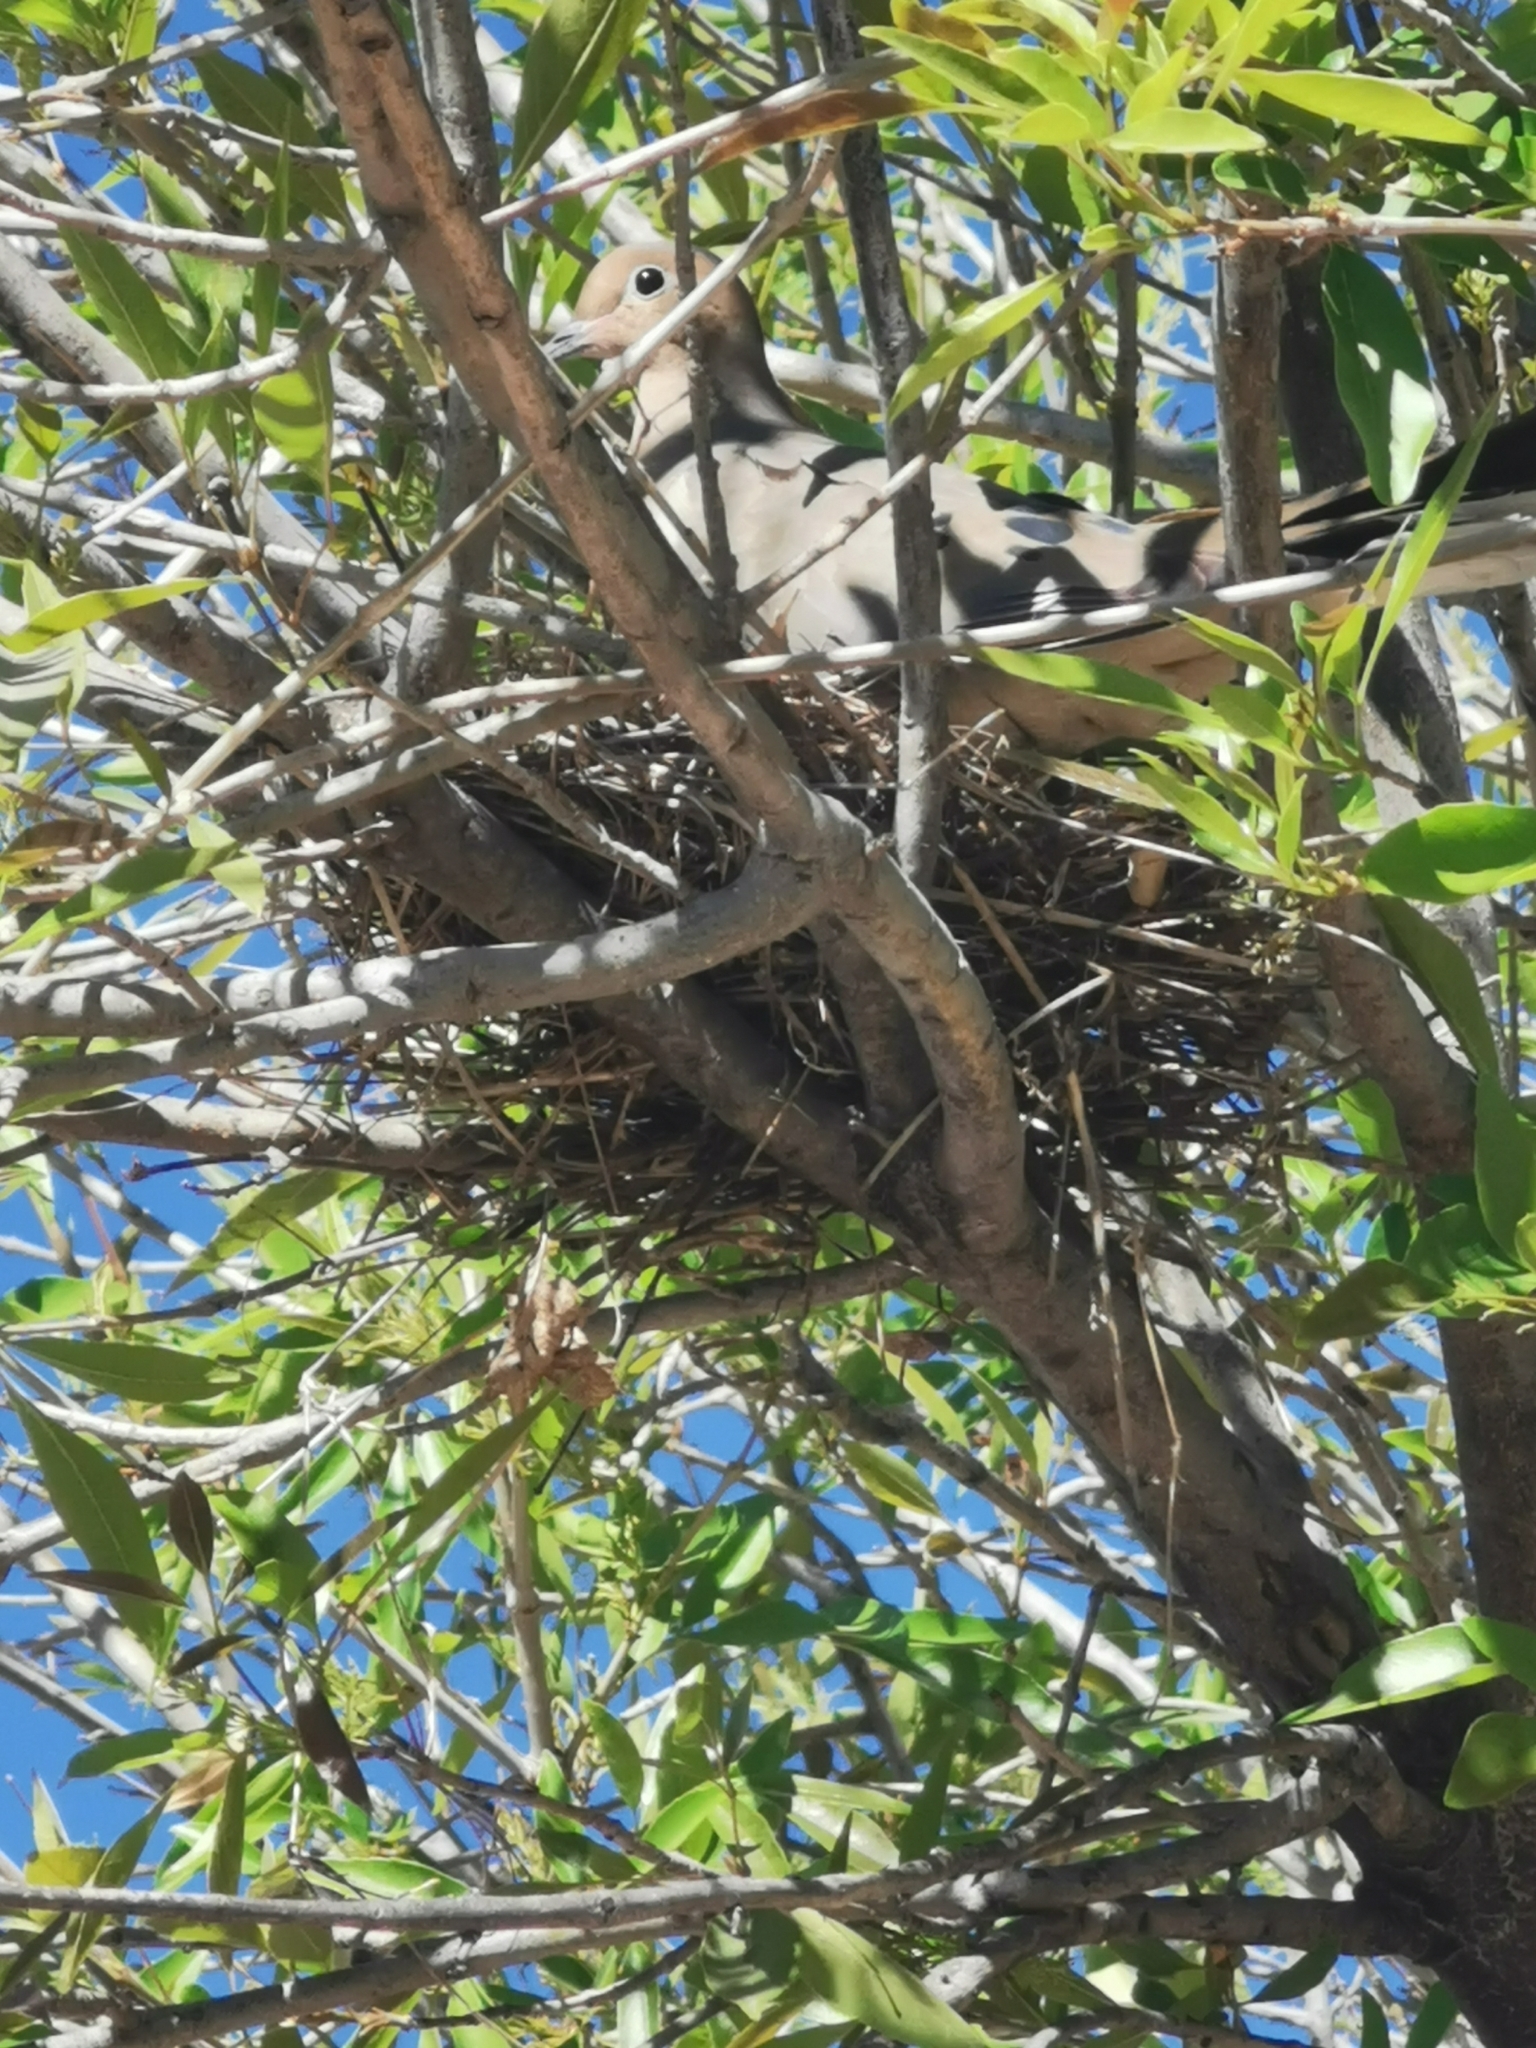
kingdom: Animalia
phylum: Chordata
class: Aves
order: Columbiformes
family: Columbidae
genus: Zenaida
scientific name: Zenaida macroura
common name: Mourning dove
